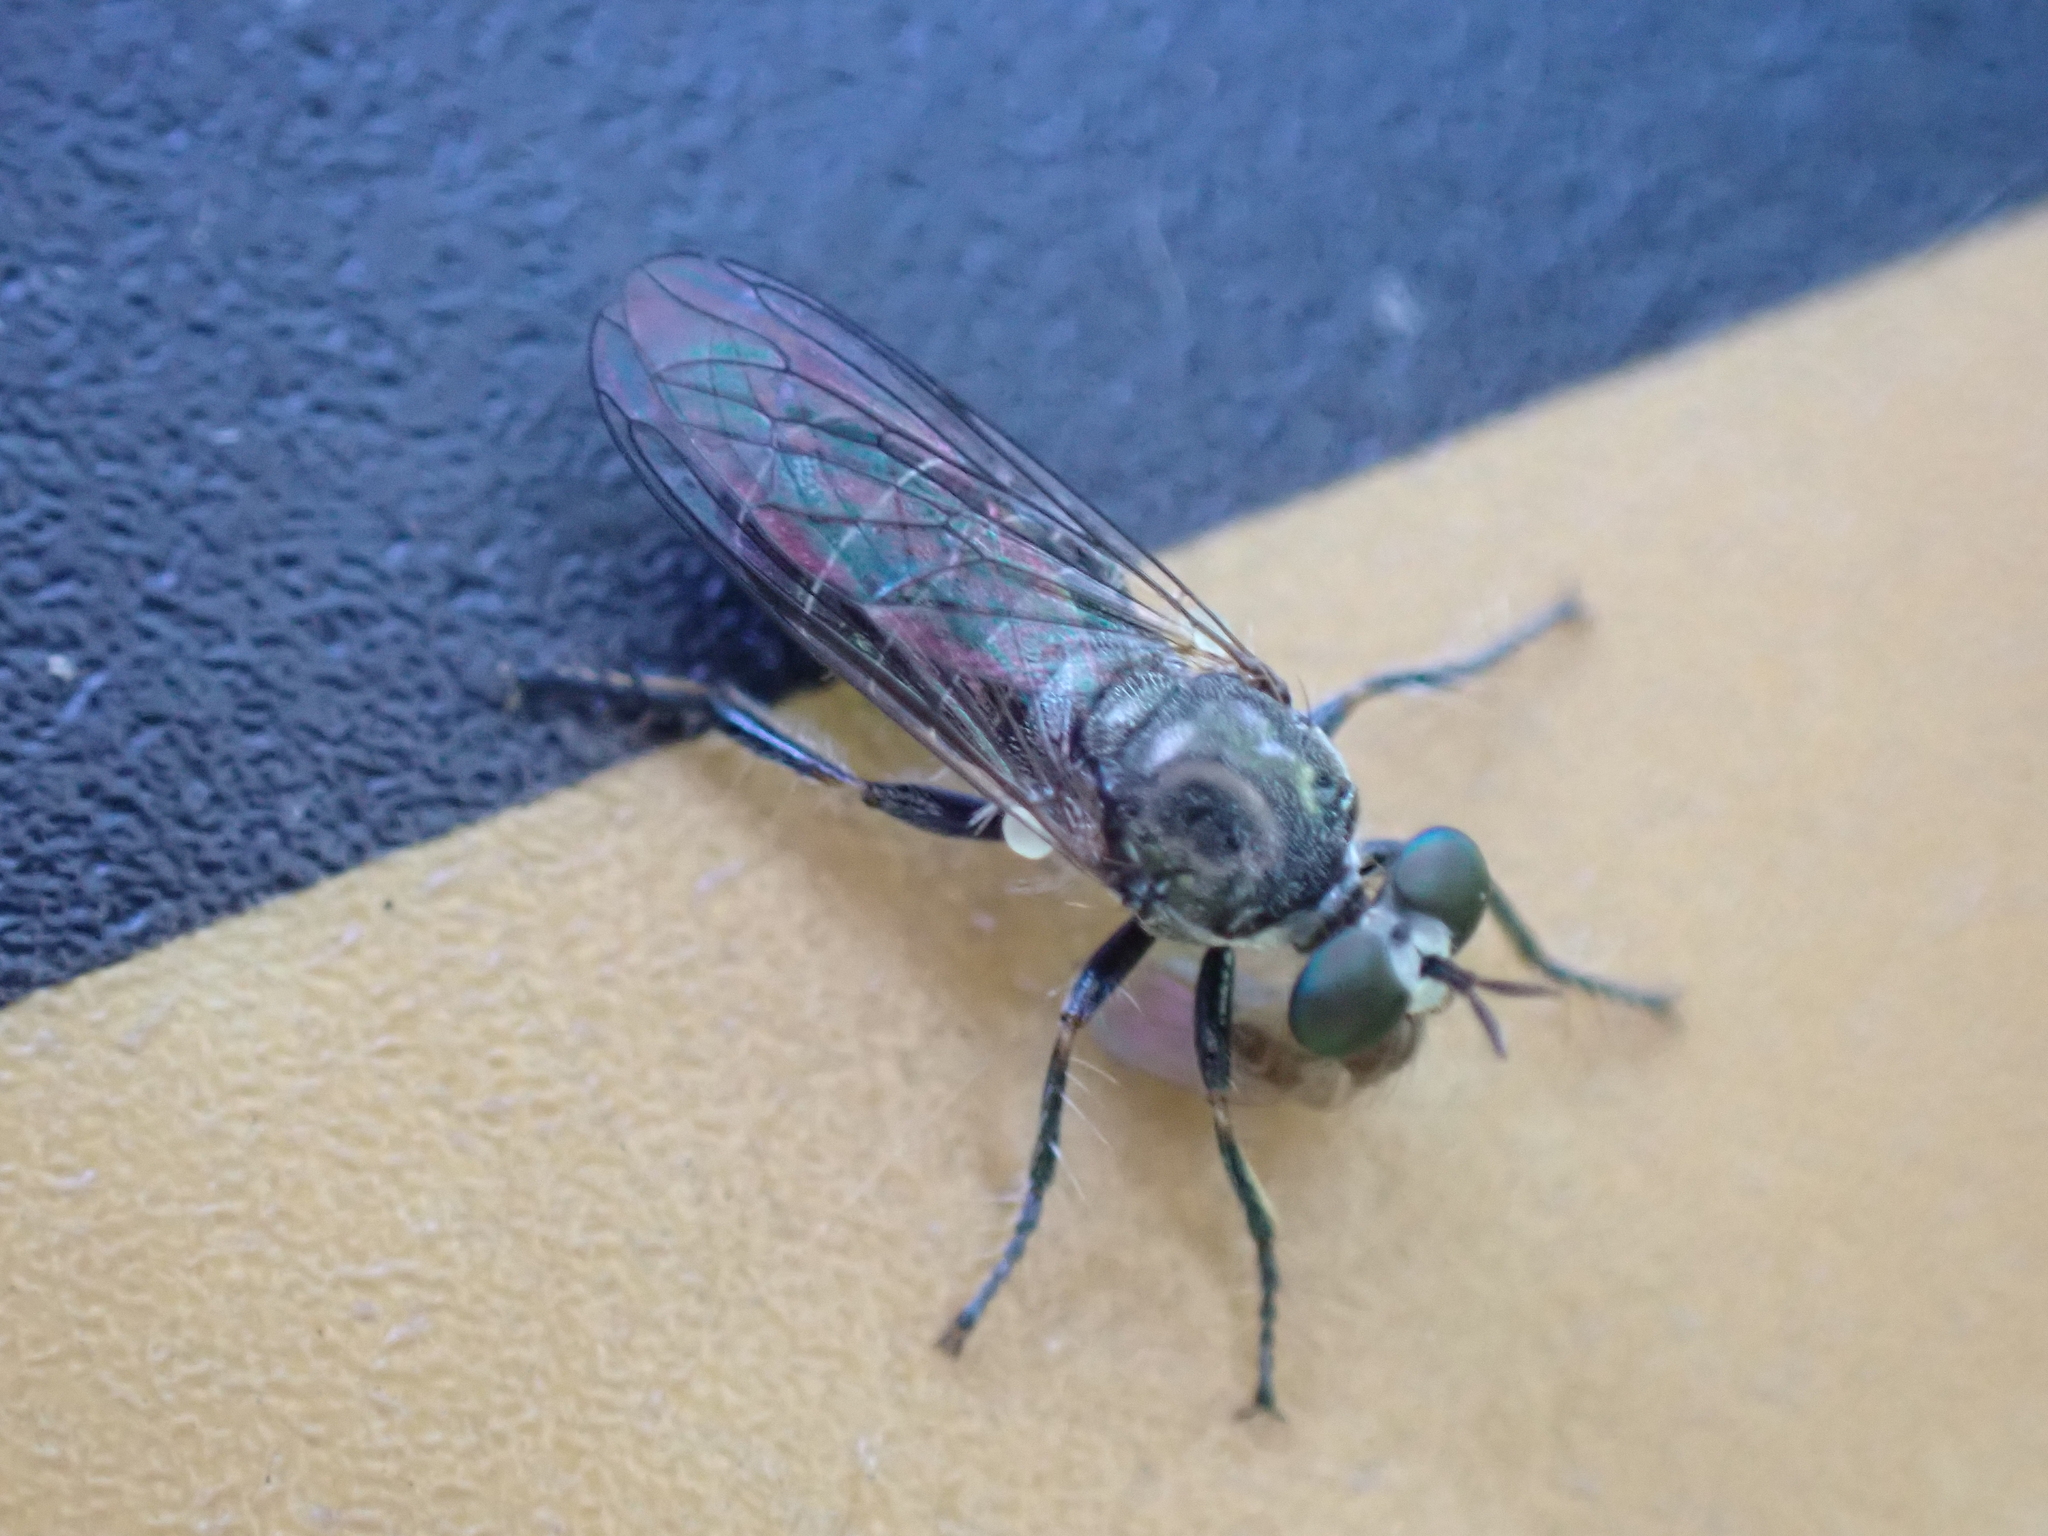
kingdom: Animalia
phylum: Arthropoda
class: Insecta
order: Diptera
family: Asilidae
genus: Atomosia
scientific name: Atomosia puella
